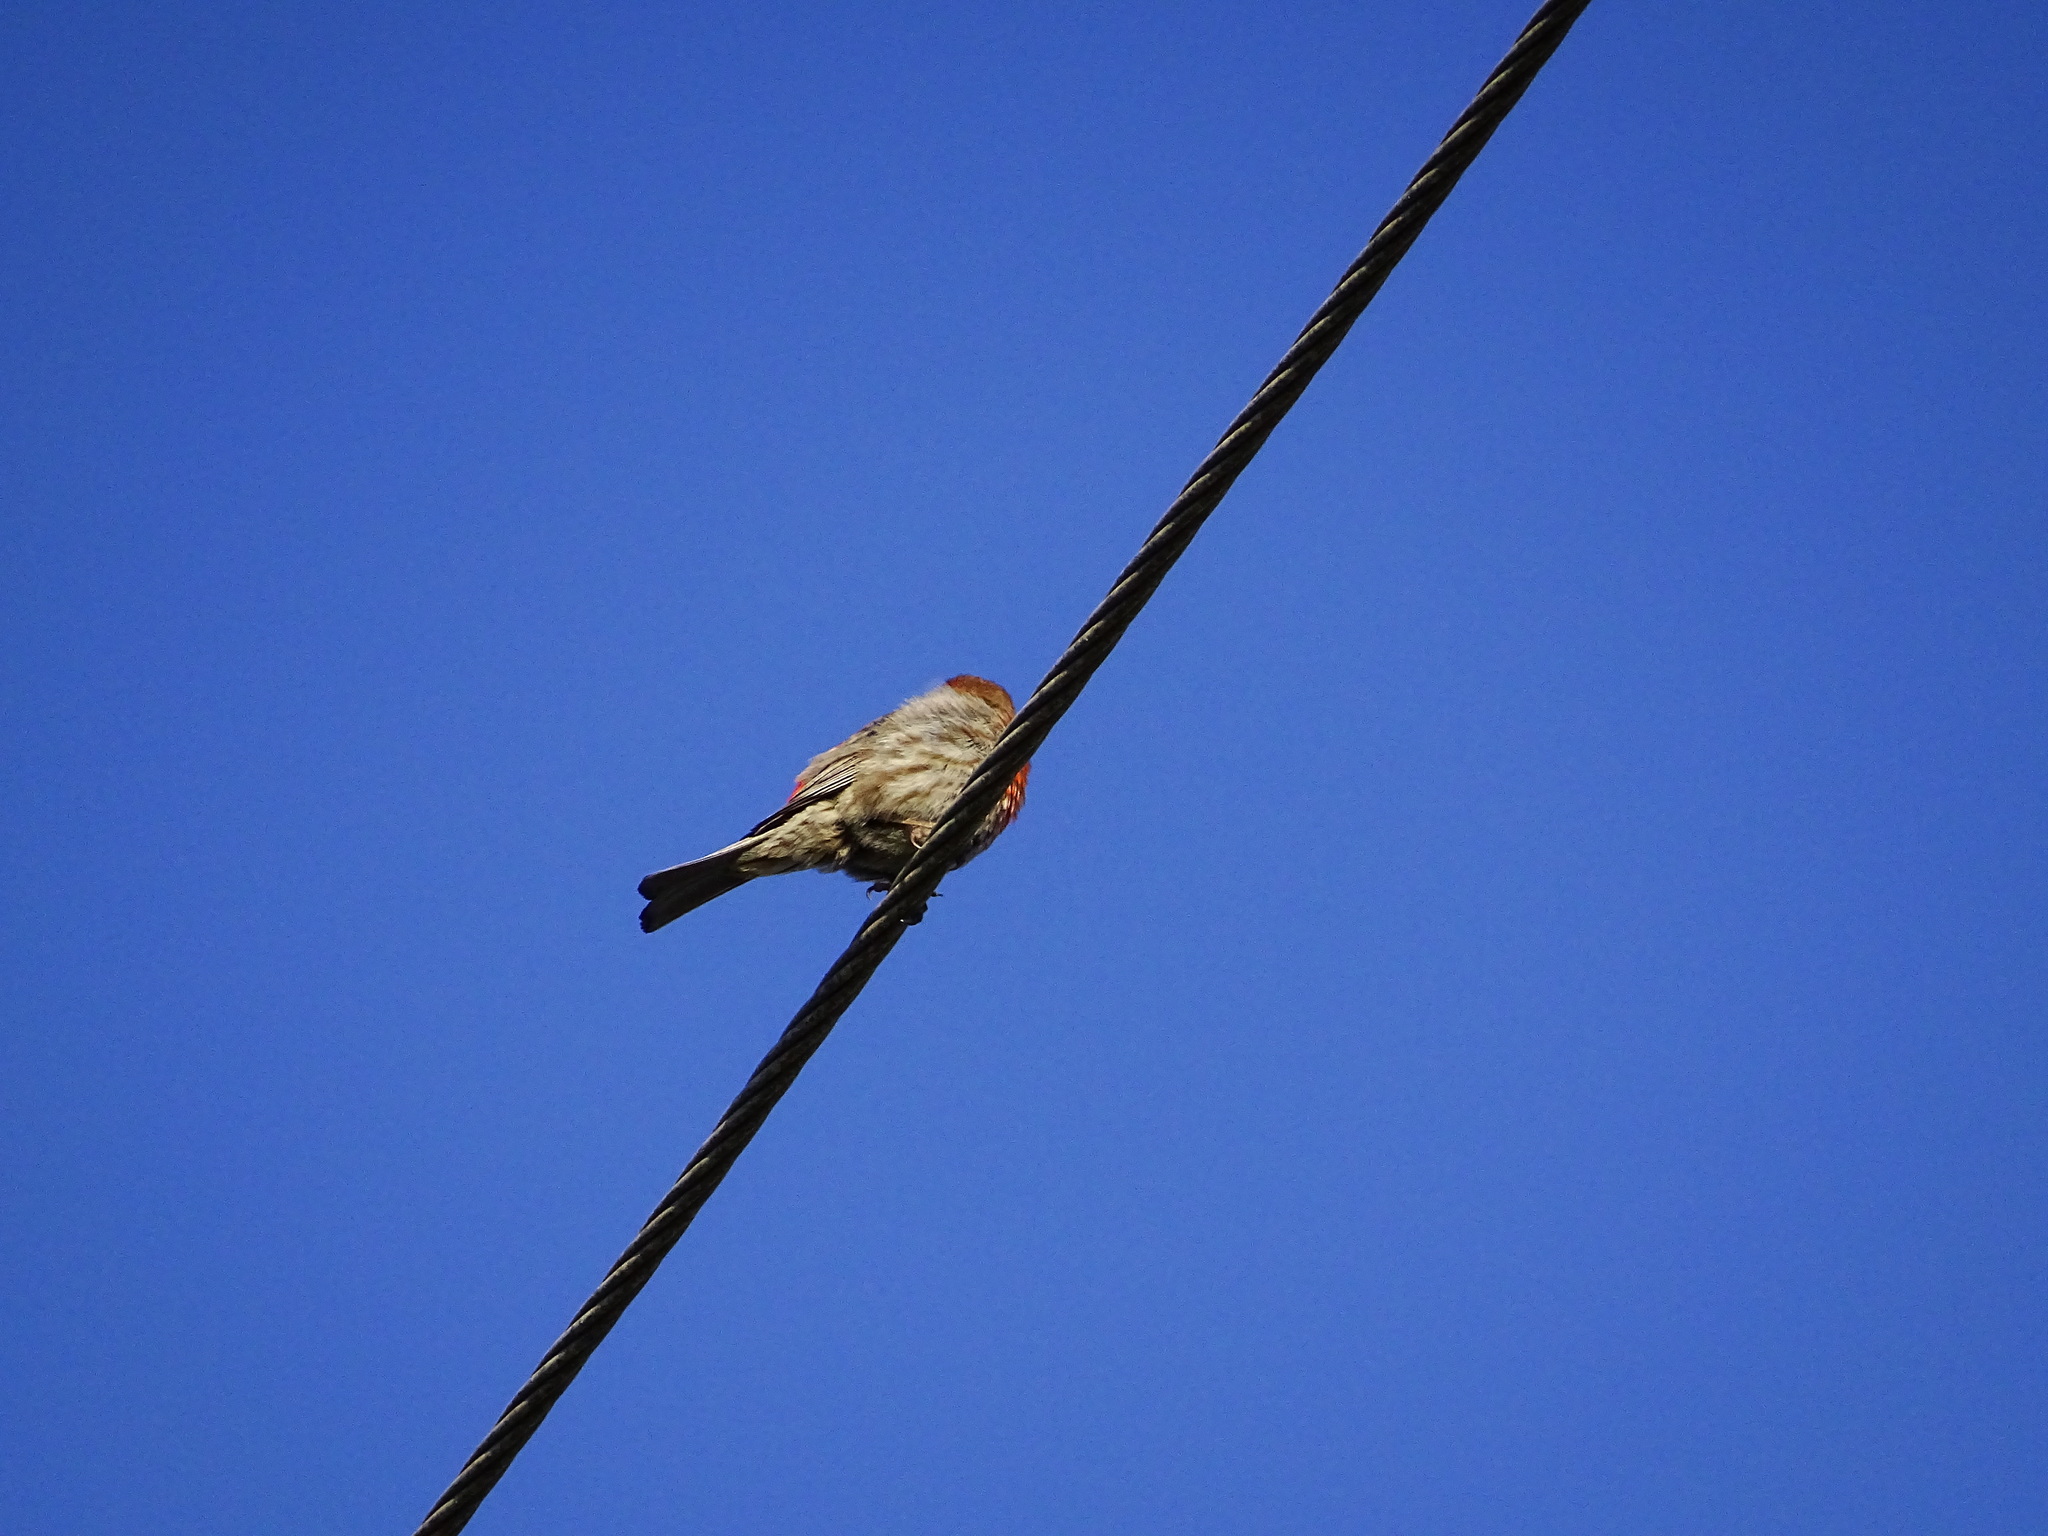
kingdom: Animalia
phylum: Chordata
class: Aves
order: Passeriformes
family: Fringillidae
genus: Haemorhous
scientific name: Haemorhous mexicanus
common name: House finch
